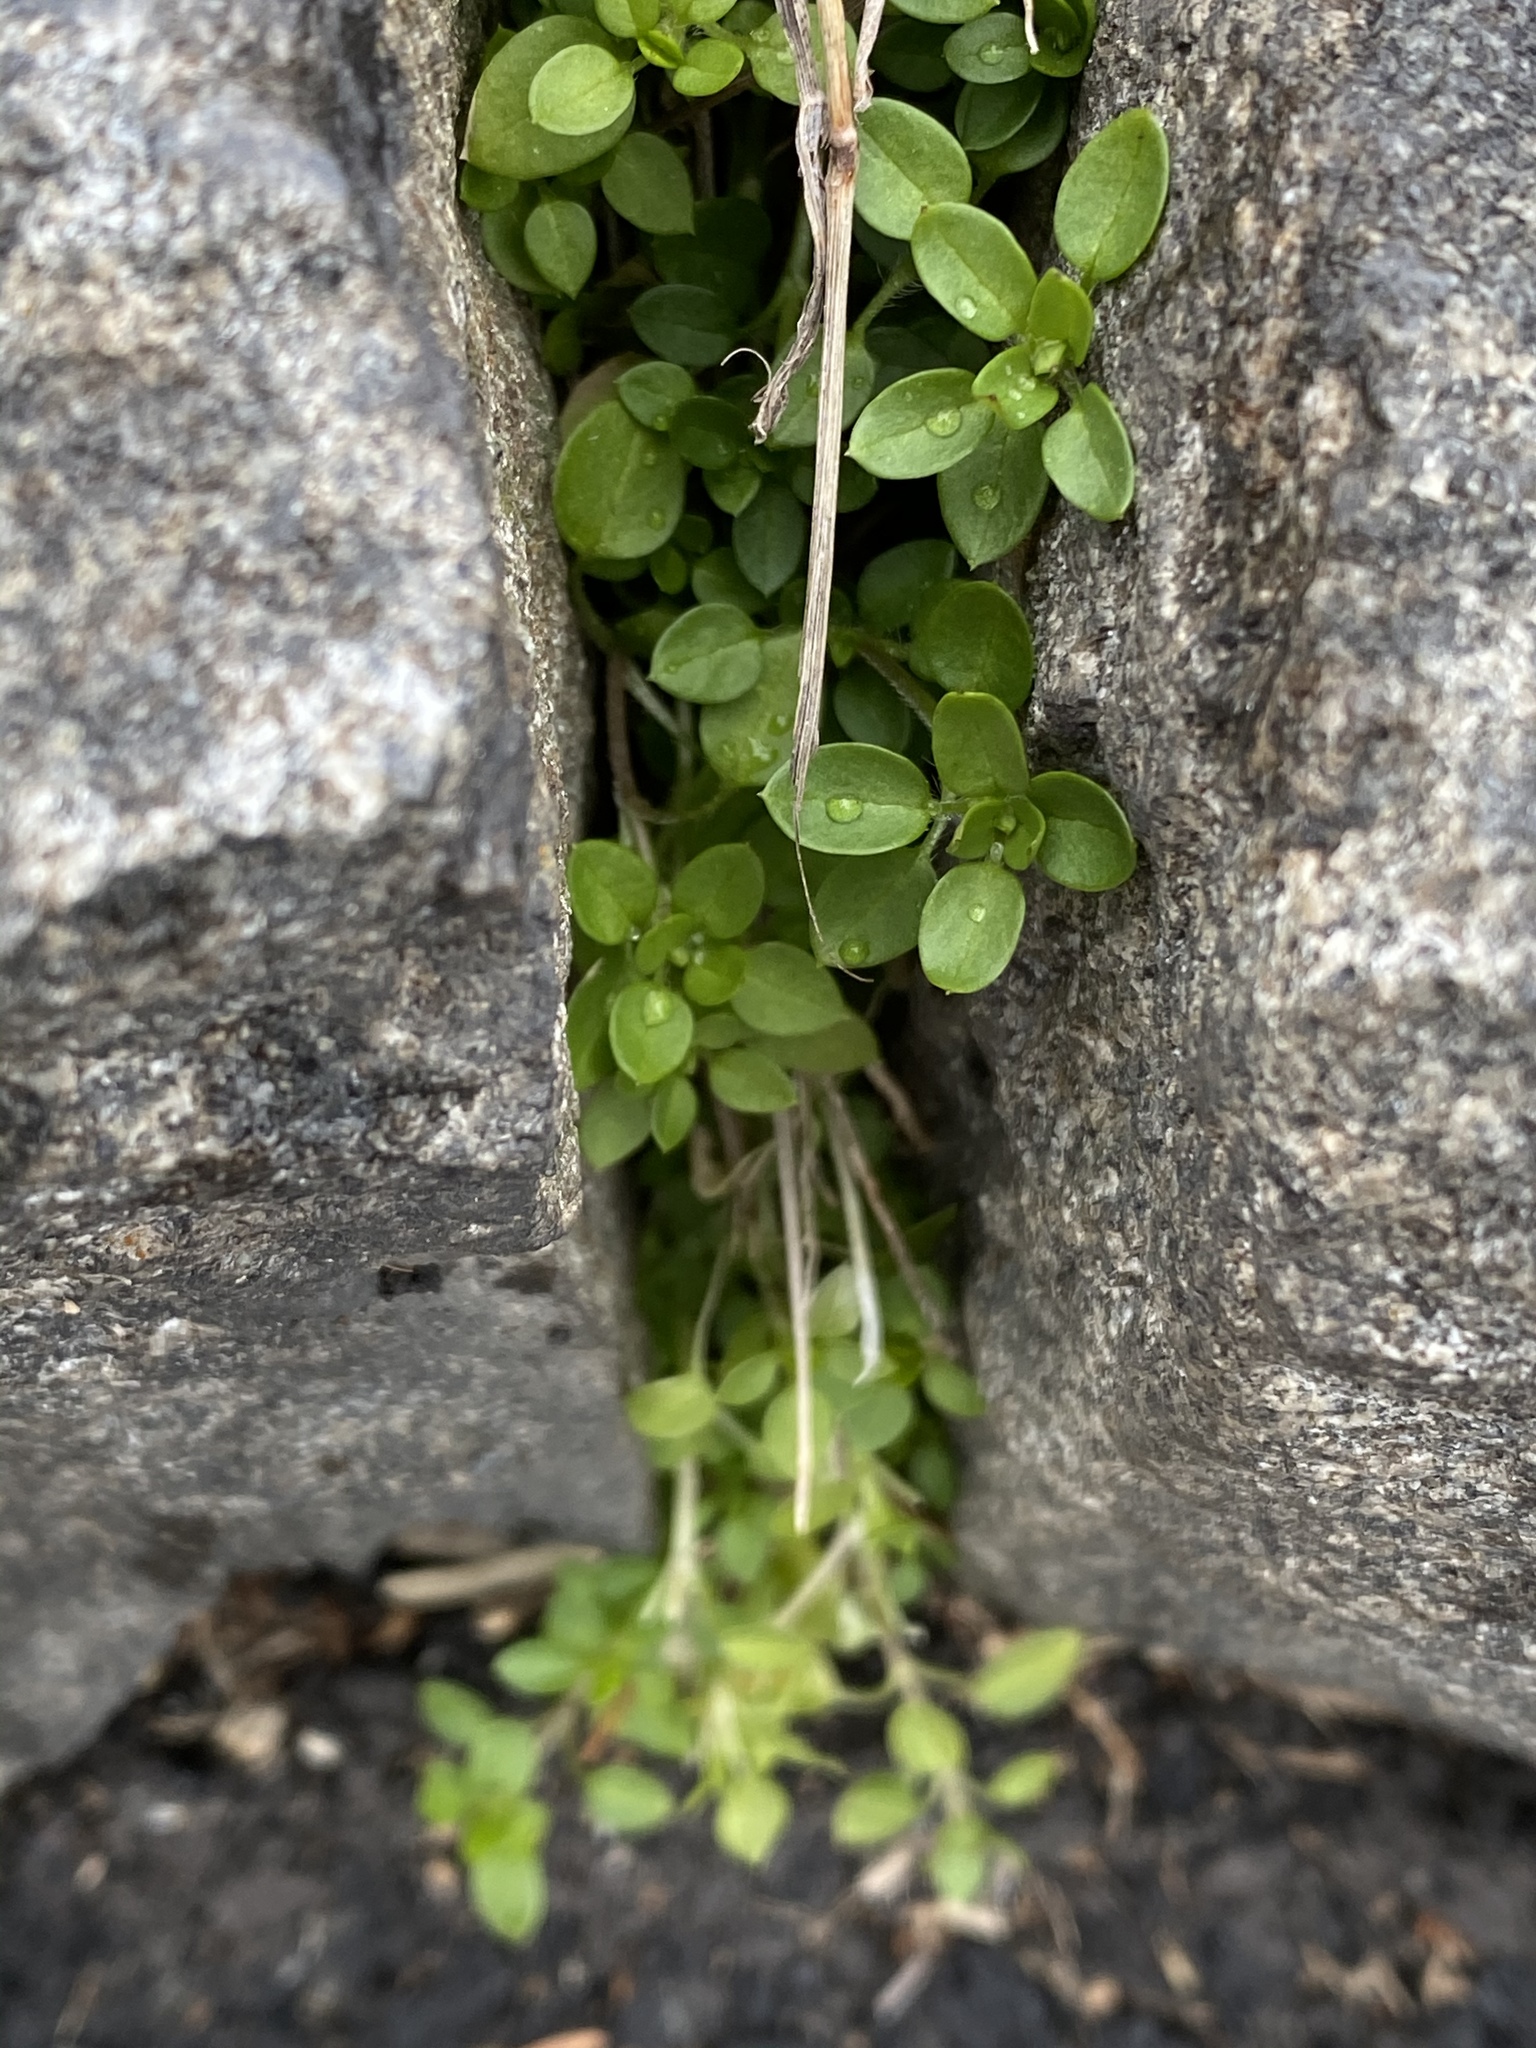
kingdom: Plantae
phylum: Tracheophyta
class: Magnoliopsida
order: Caryophyllales
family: Caryophyllaceae
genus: Stellaria
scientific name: Stellaria media
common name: Common chickweed
